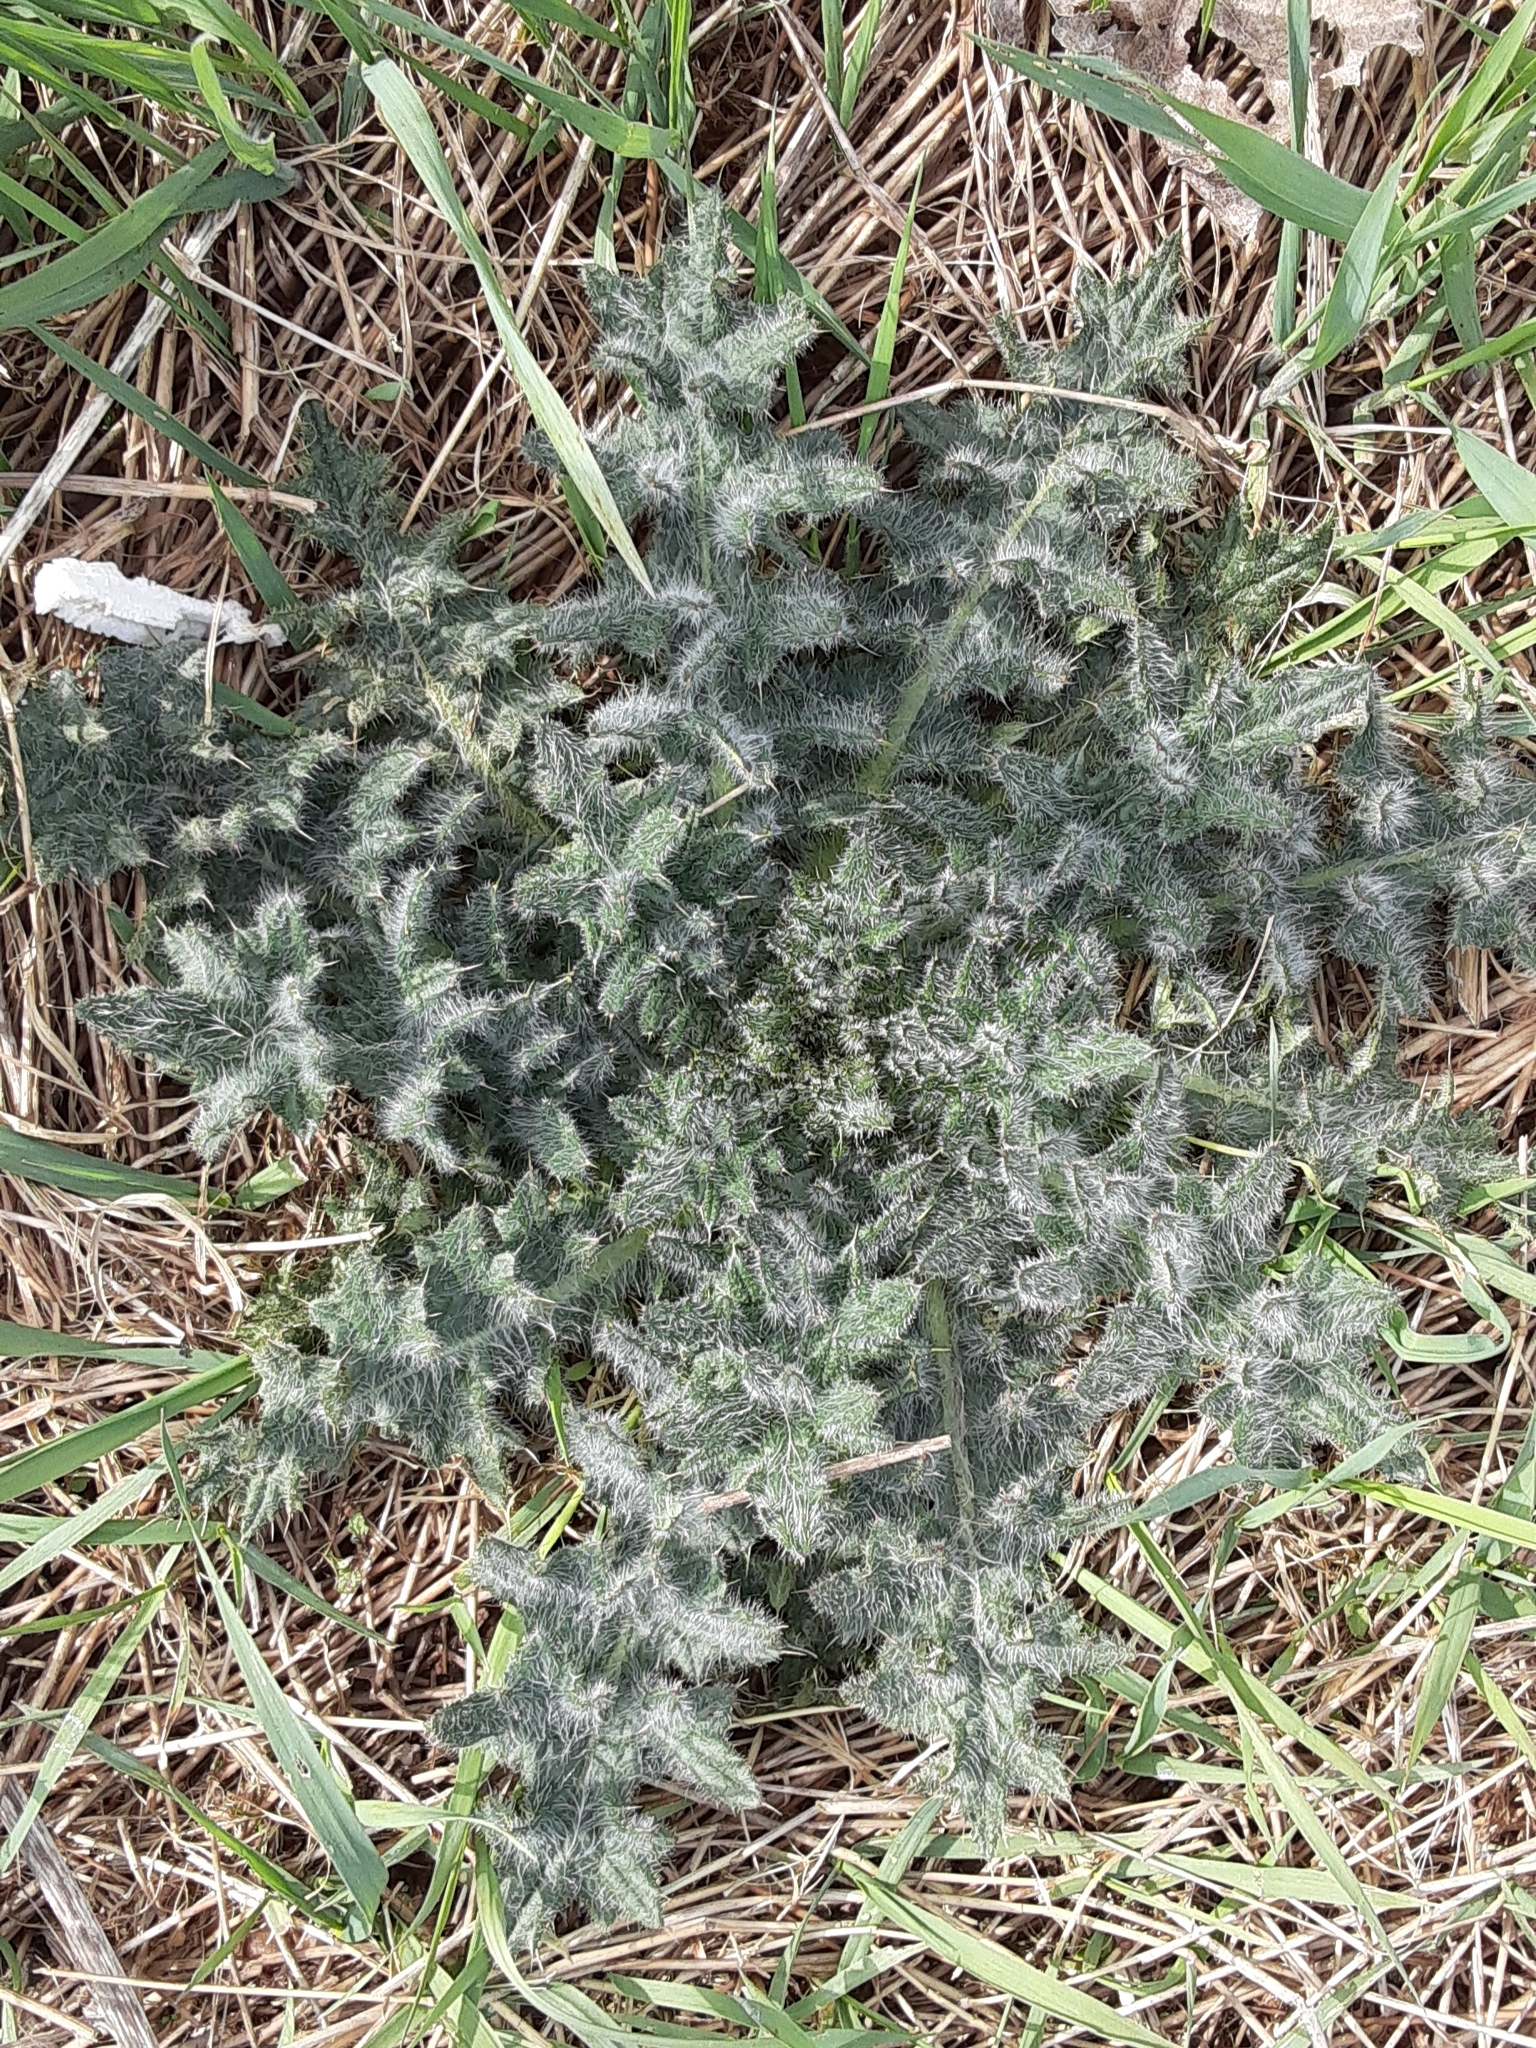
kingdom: Plantae
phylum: Tracheophyta
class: Magnoliopsida
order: Asterales
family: Asteraceae
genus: Cirsium
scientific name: Cirsium vulgare
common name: Bull thistle
